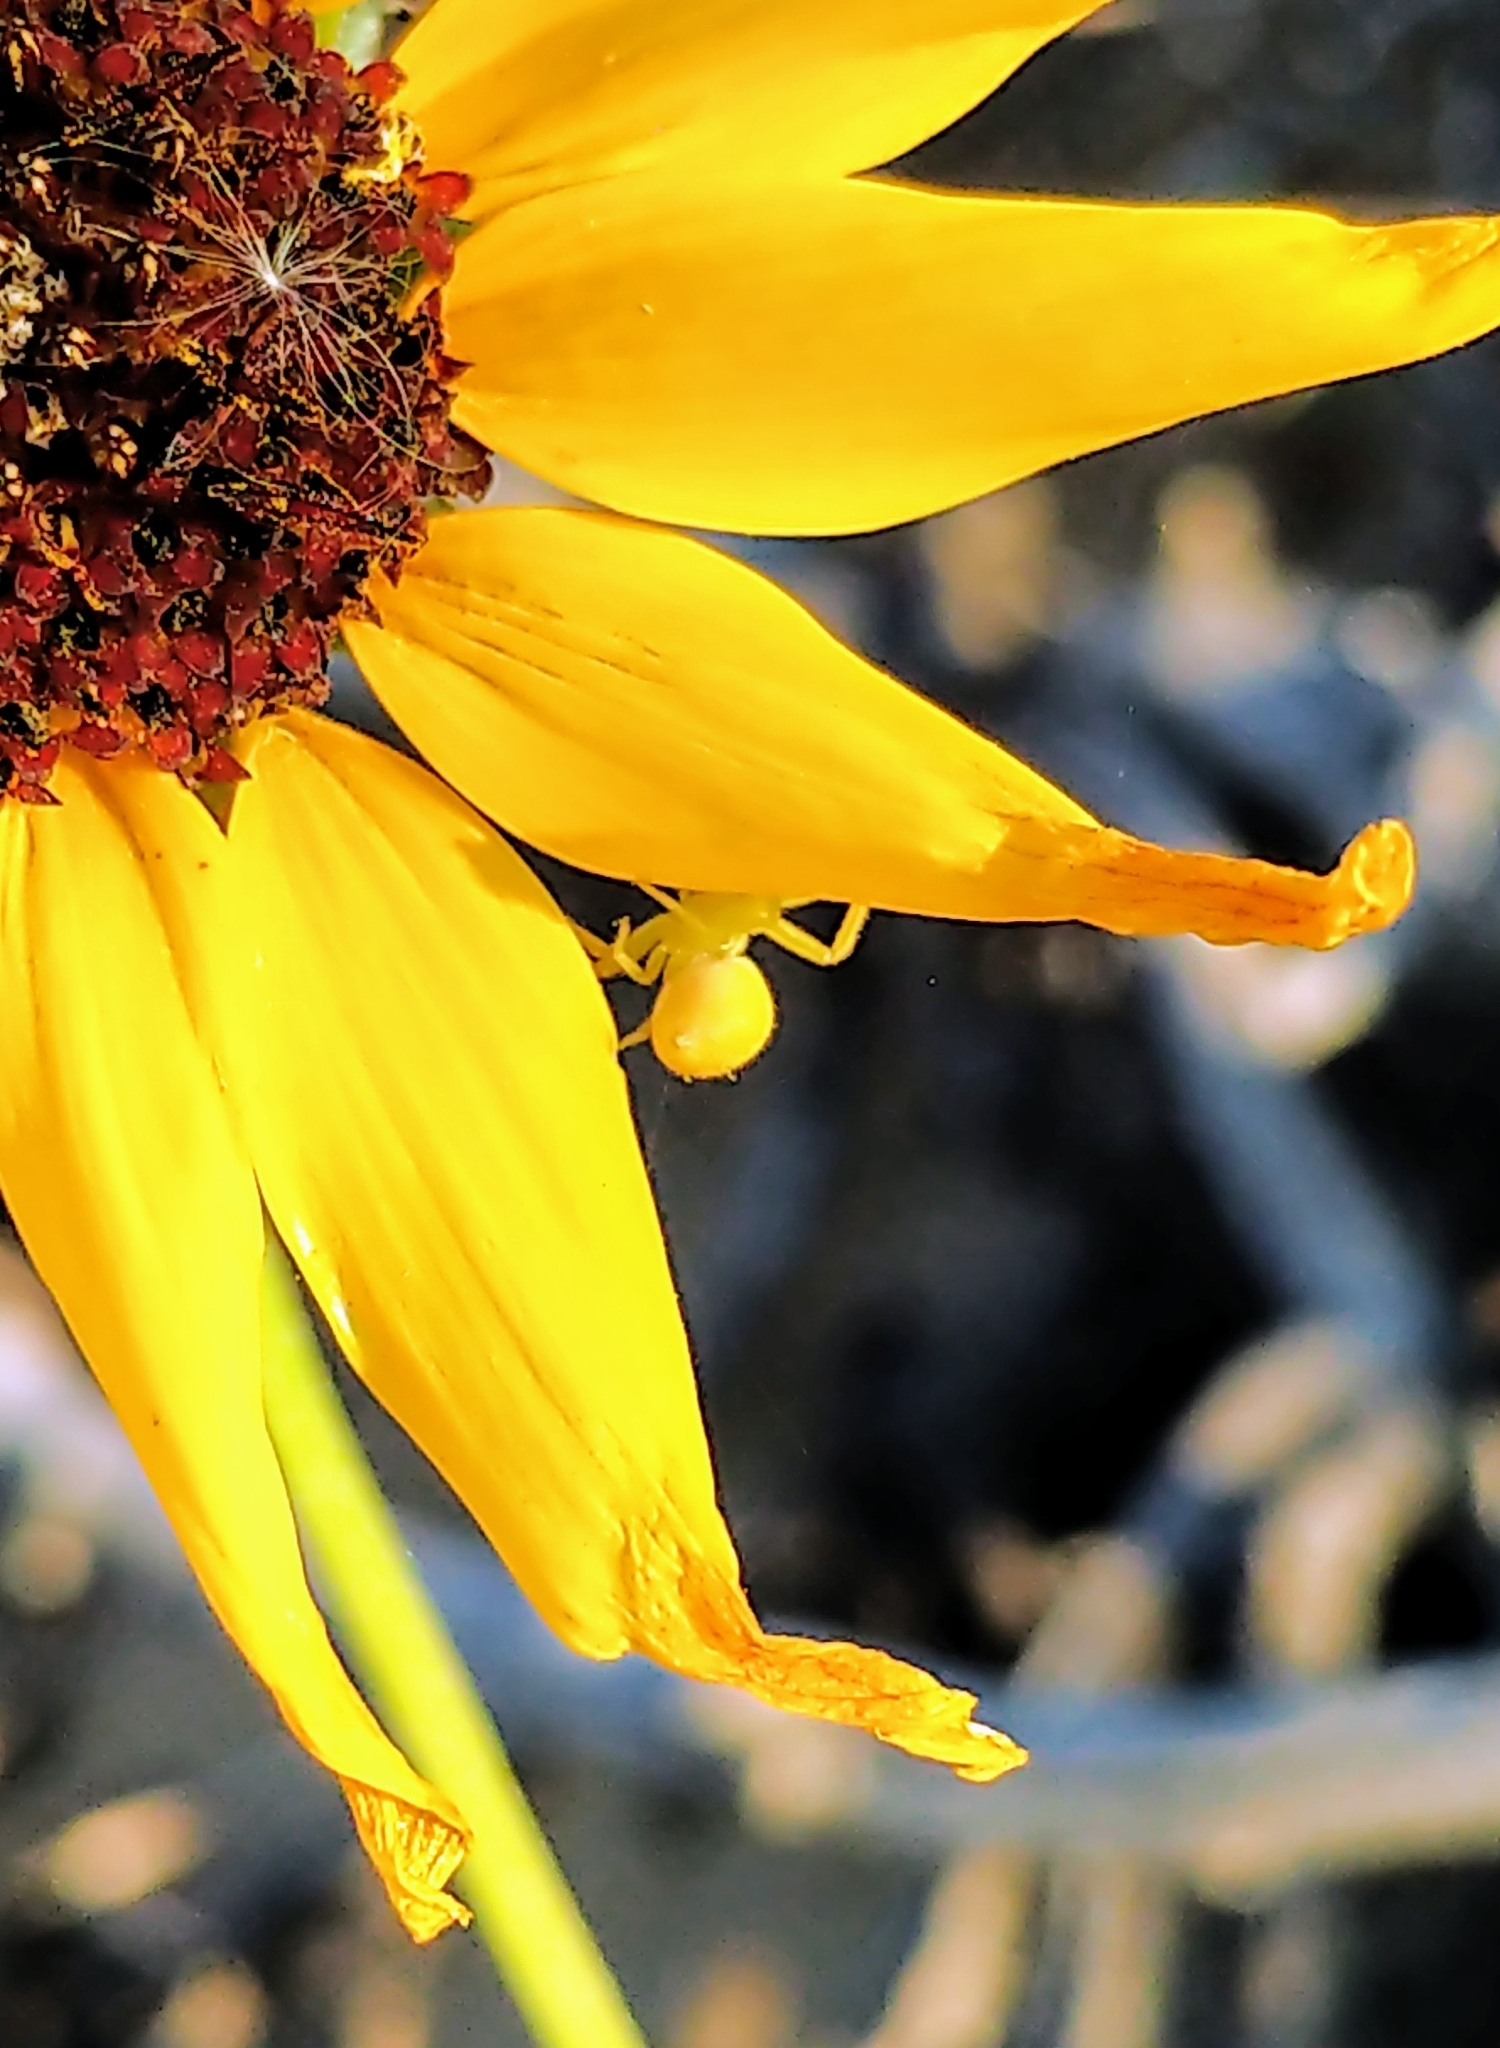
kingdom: Animalia
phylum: Arthropoda
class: Arachnida
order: Araneae
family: Thomisidae
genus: Misumena
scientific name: Misumena vatia
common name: Goldenrod crab spider
